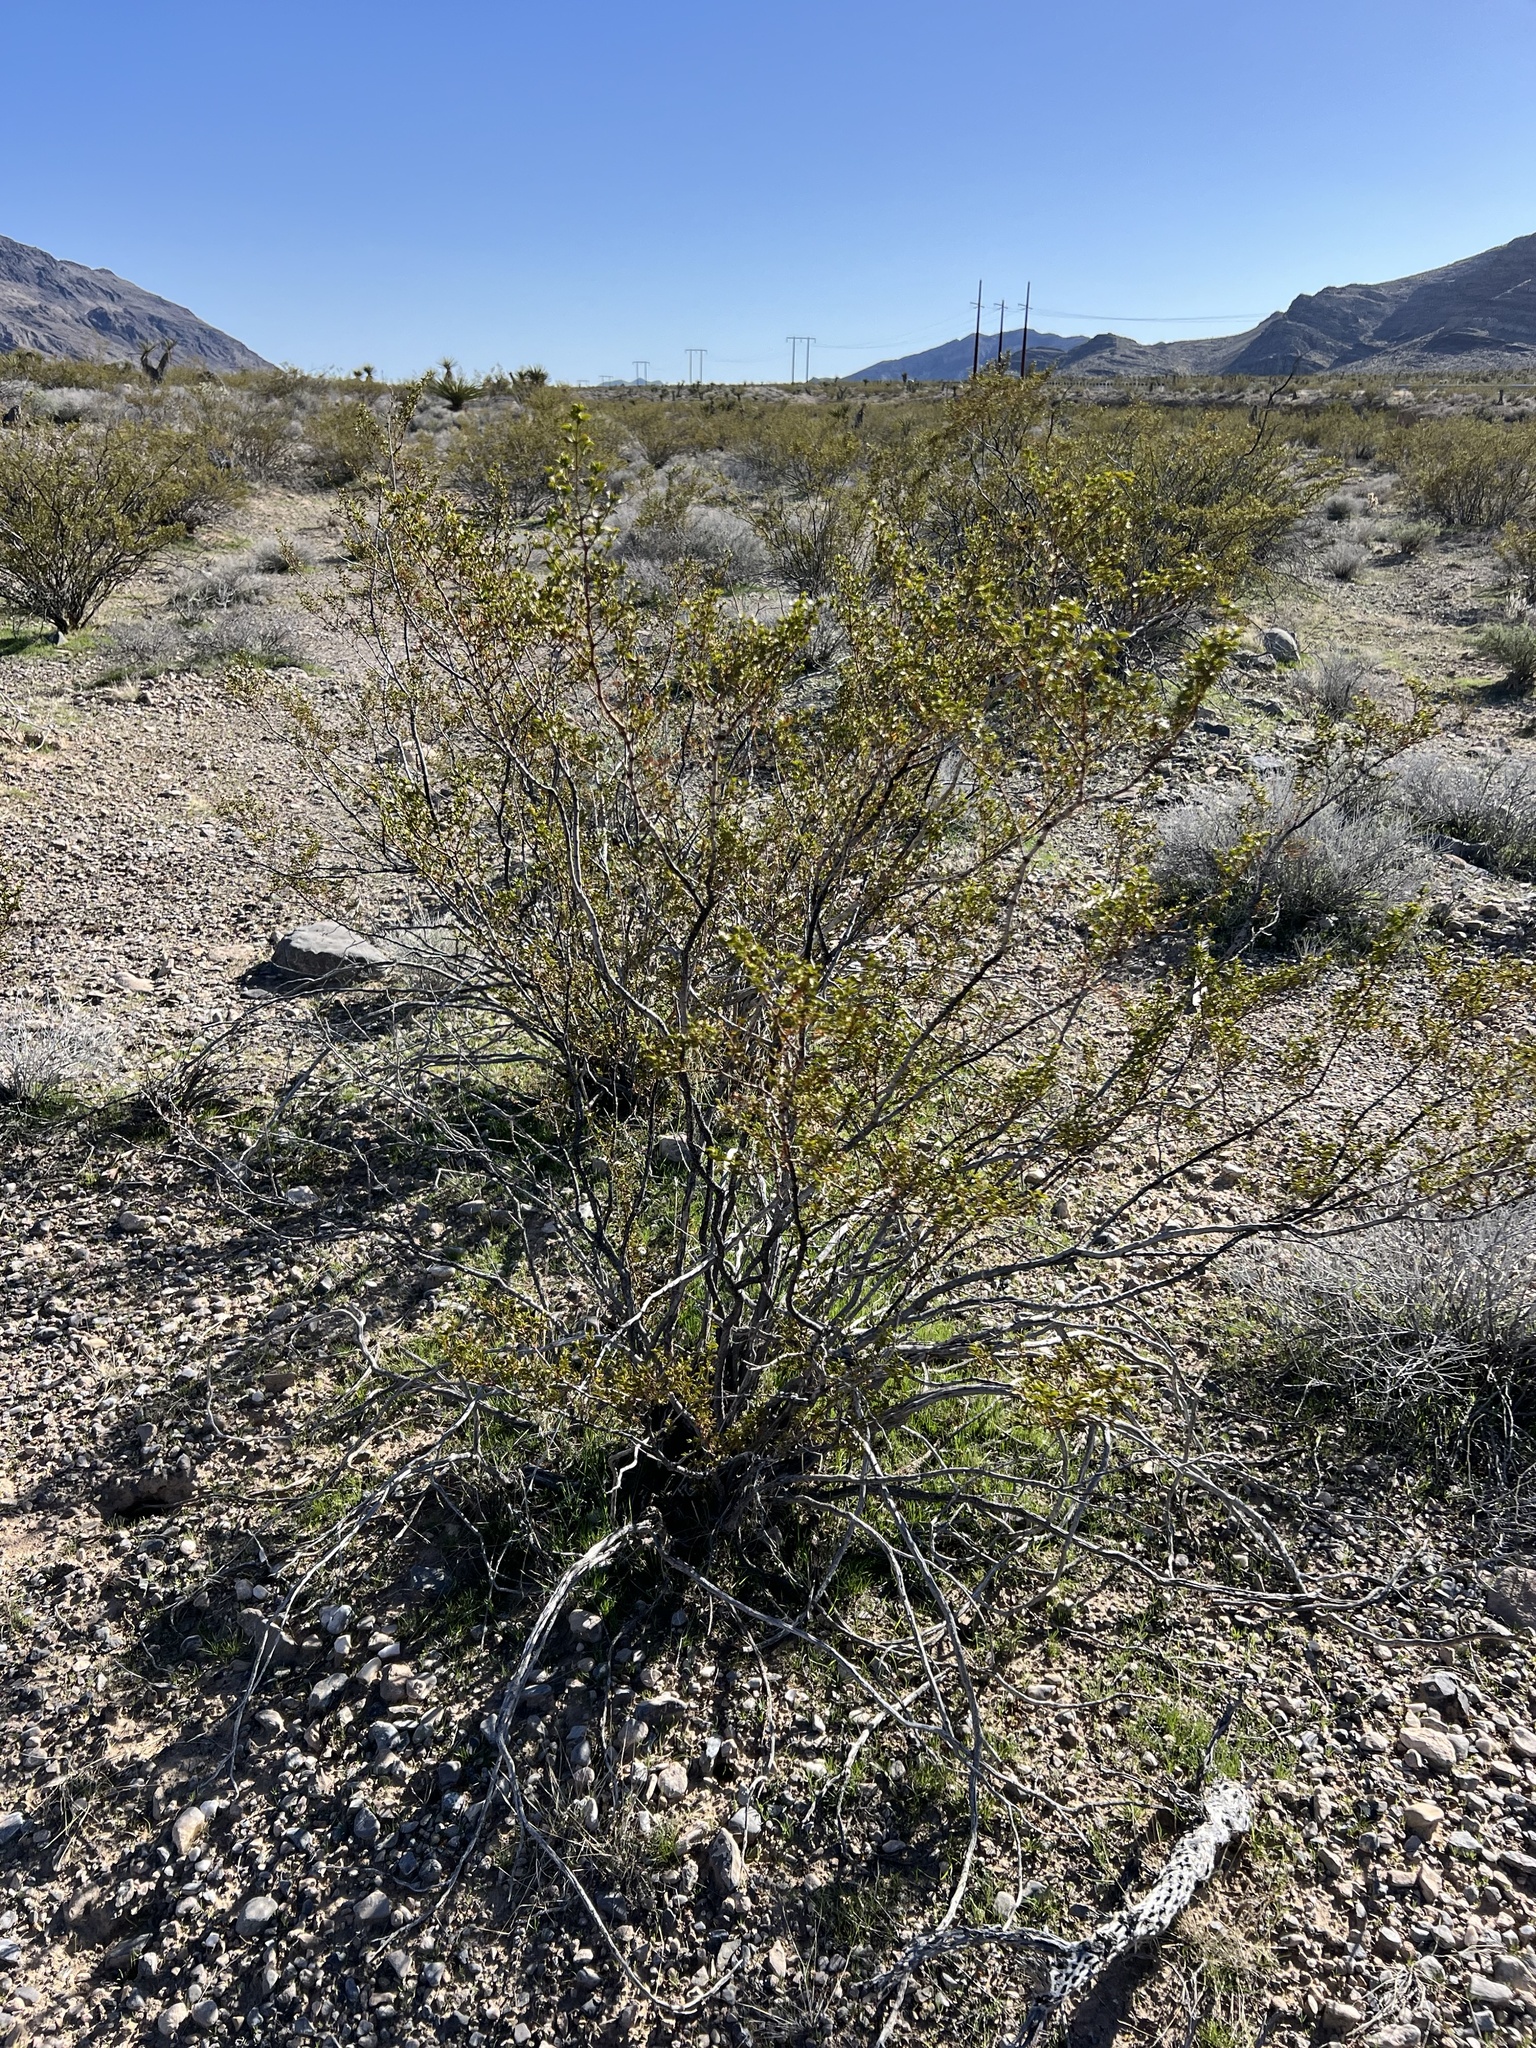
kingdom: Plantae
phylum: Tracheophyta
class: Magnoliopsida
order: Zygophyllales
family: Zygophyllaceae
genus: Larrea
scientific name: Larrea tridentata
